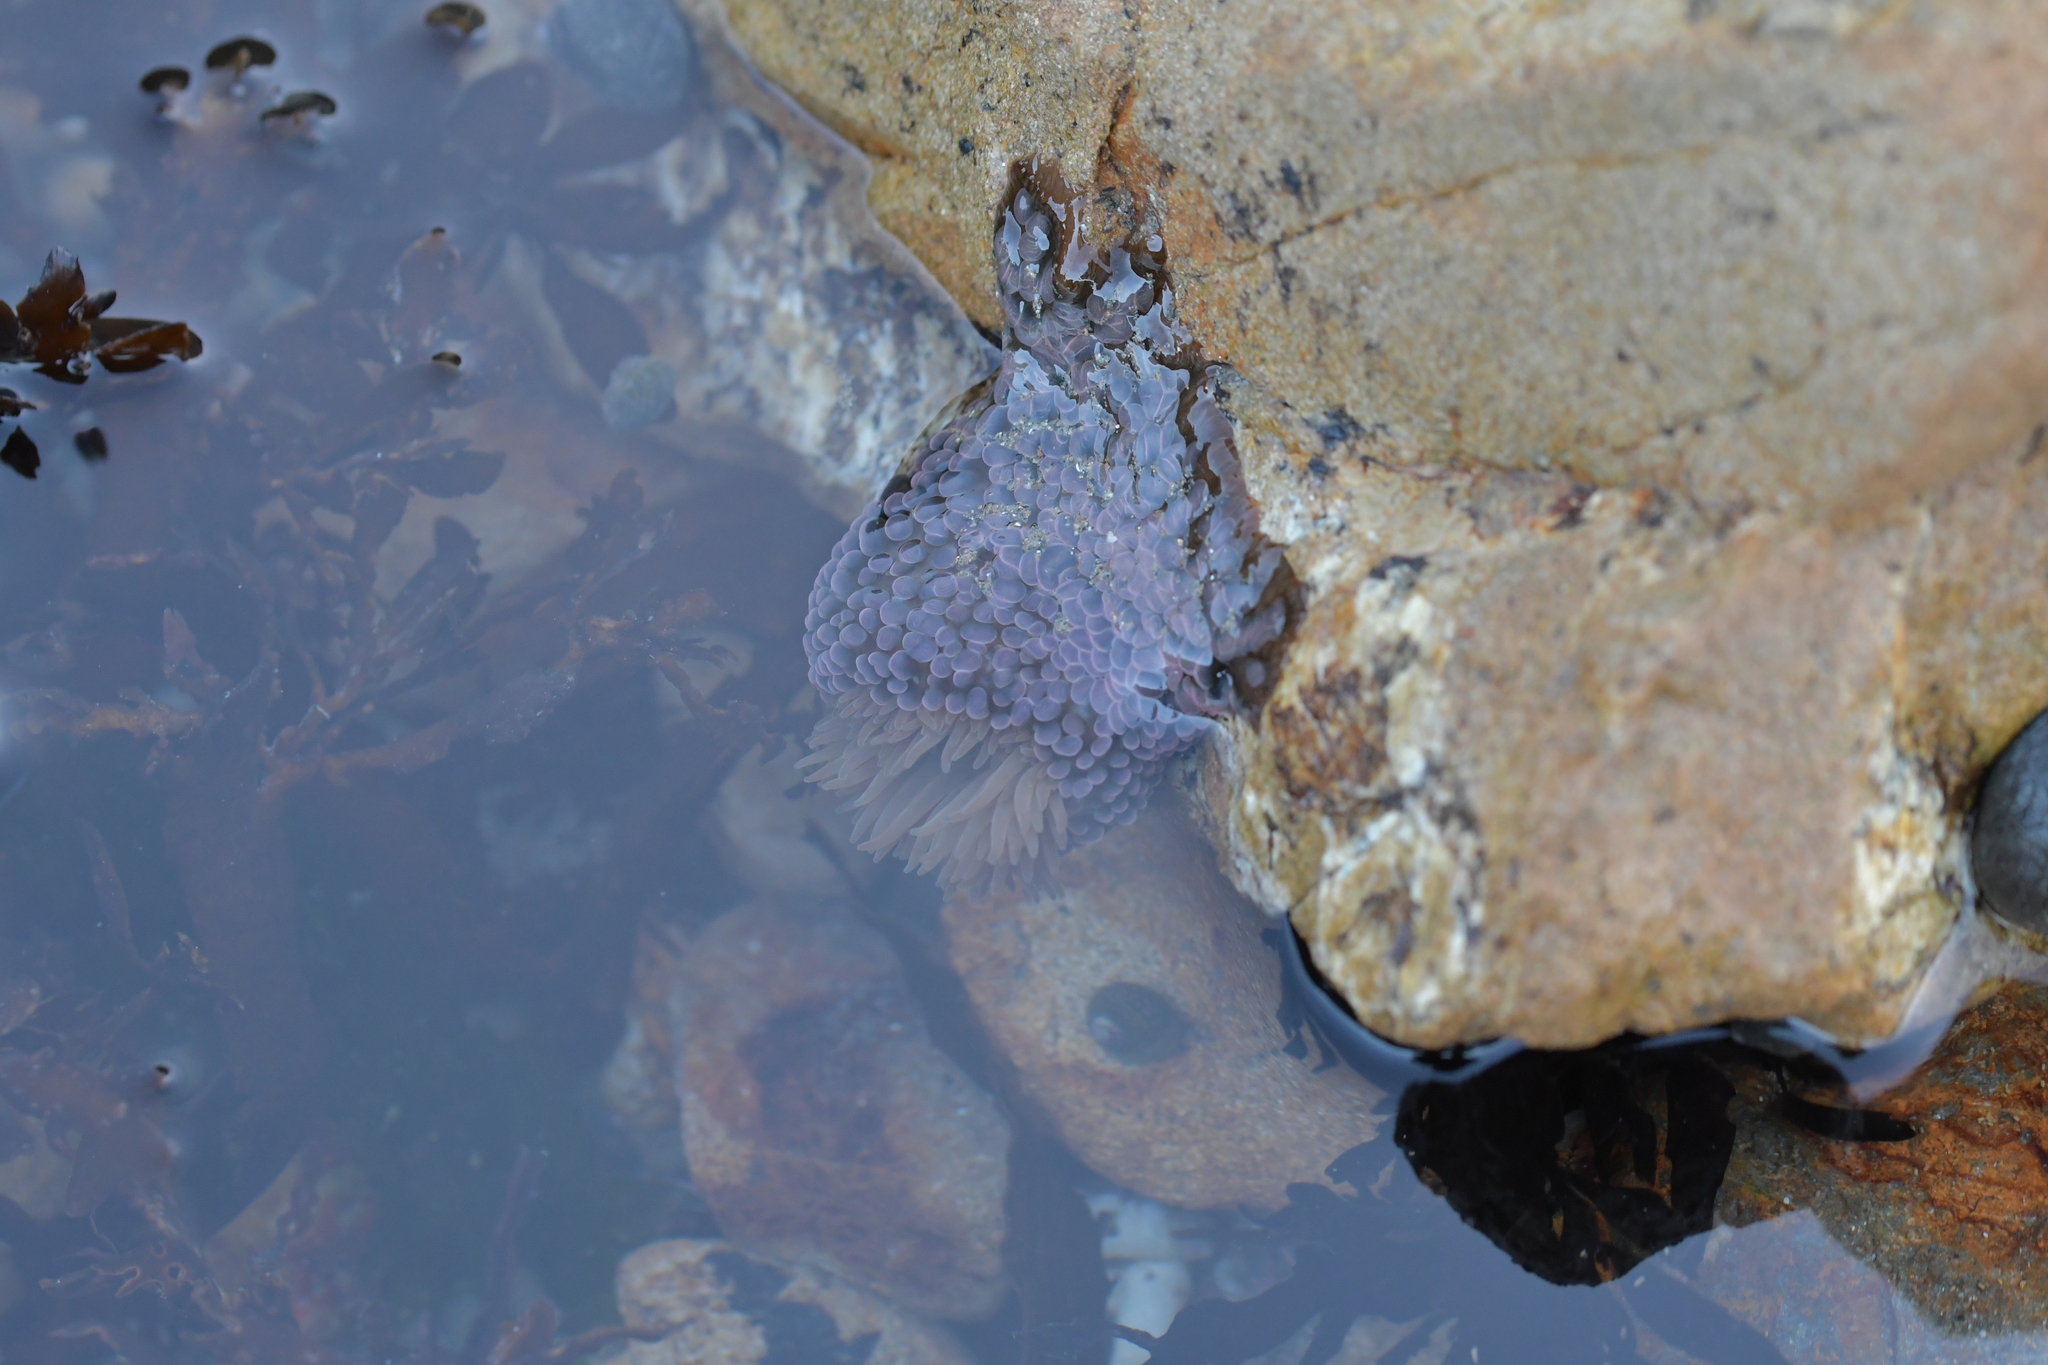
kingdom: Animalia
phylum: Cnidaria
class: Anthozoa
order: Actiniaria
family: Actiniidae
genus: Phlyctenactis
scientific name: Phlyctenactis tuberculosa
